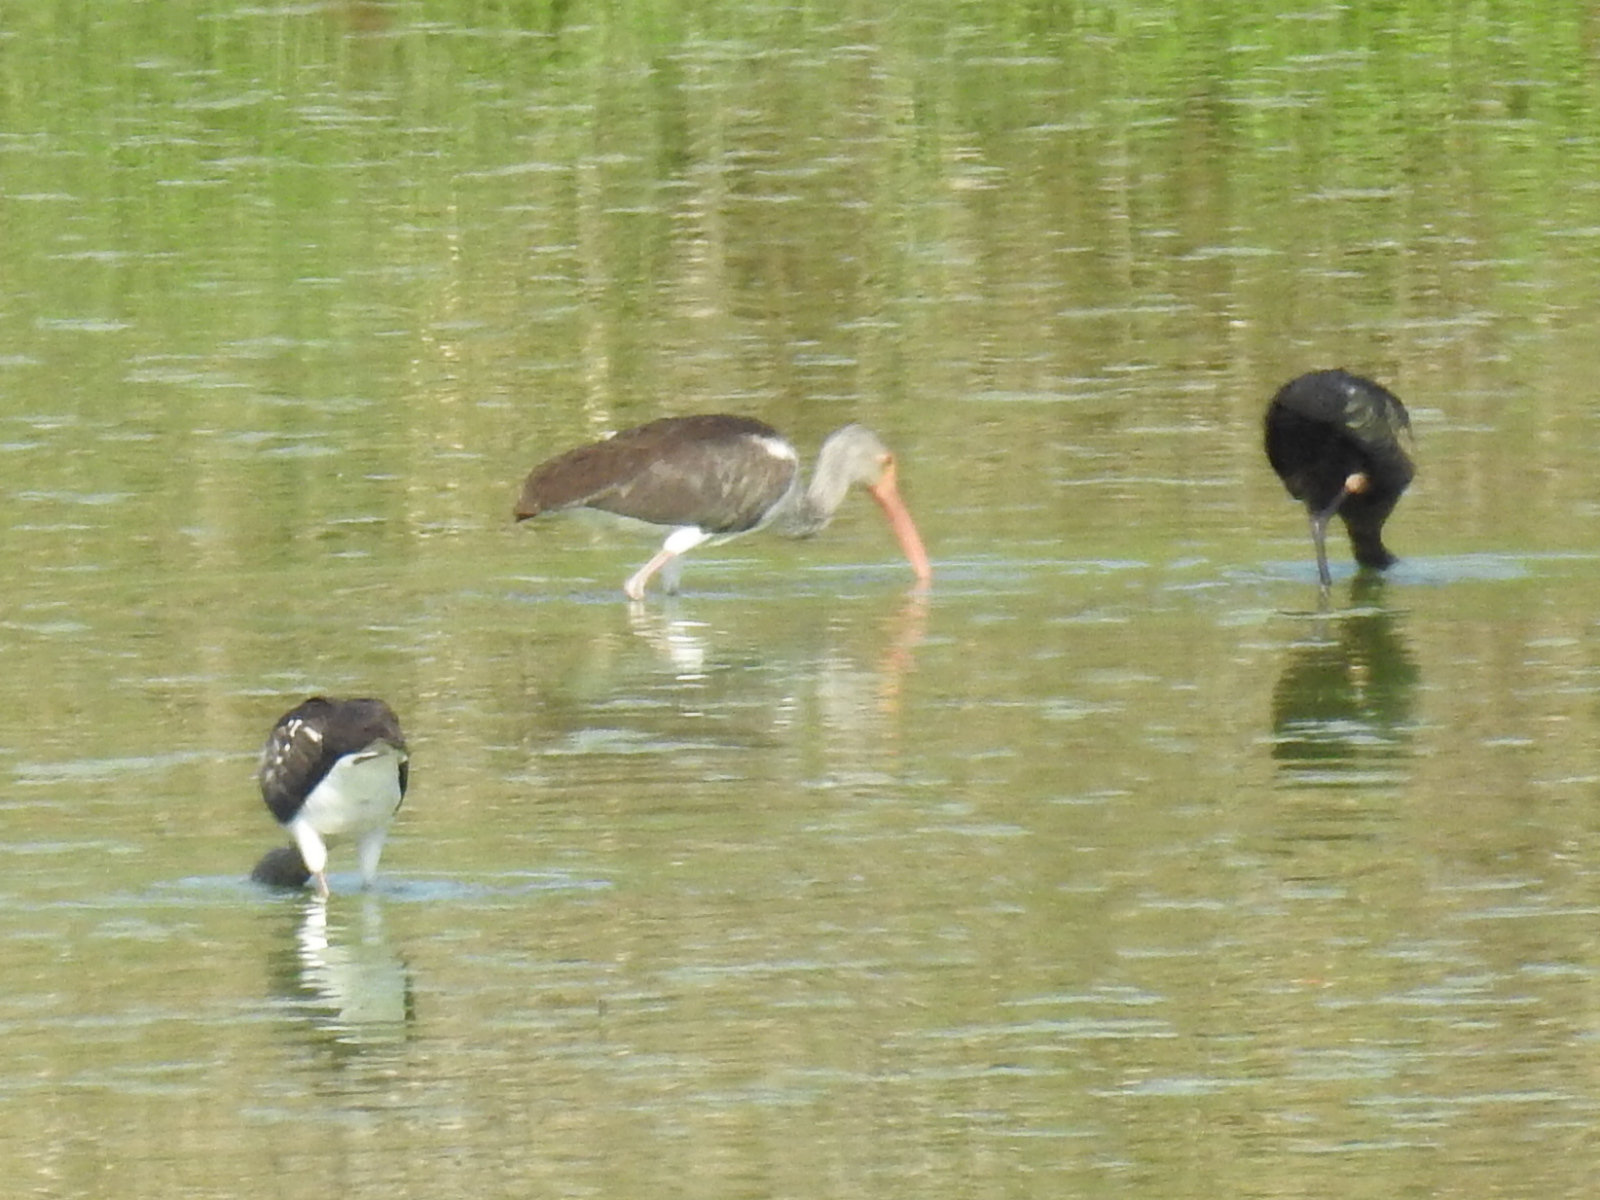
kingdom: Animalia
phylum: Chordata
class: Aves
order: Pelecaniformes
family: Threskiornithidae
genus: Eudocimus
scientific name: Eudocimus albus
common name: White ibis
